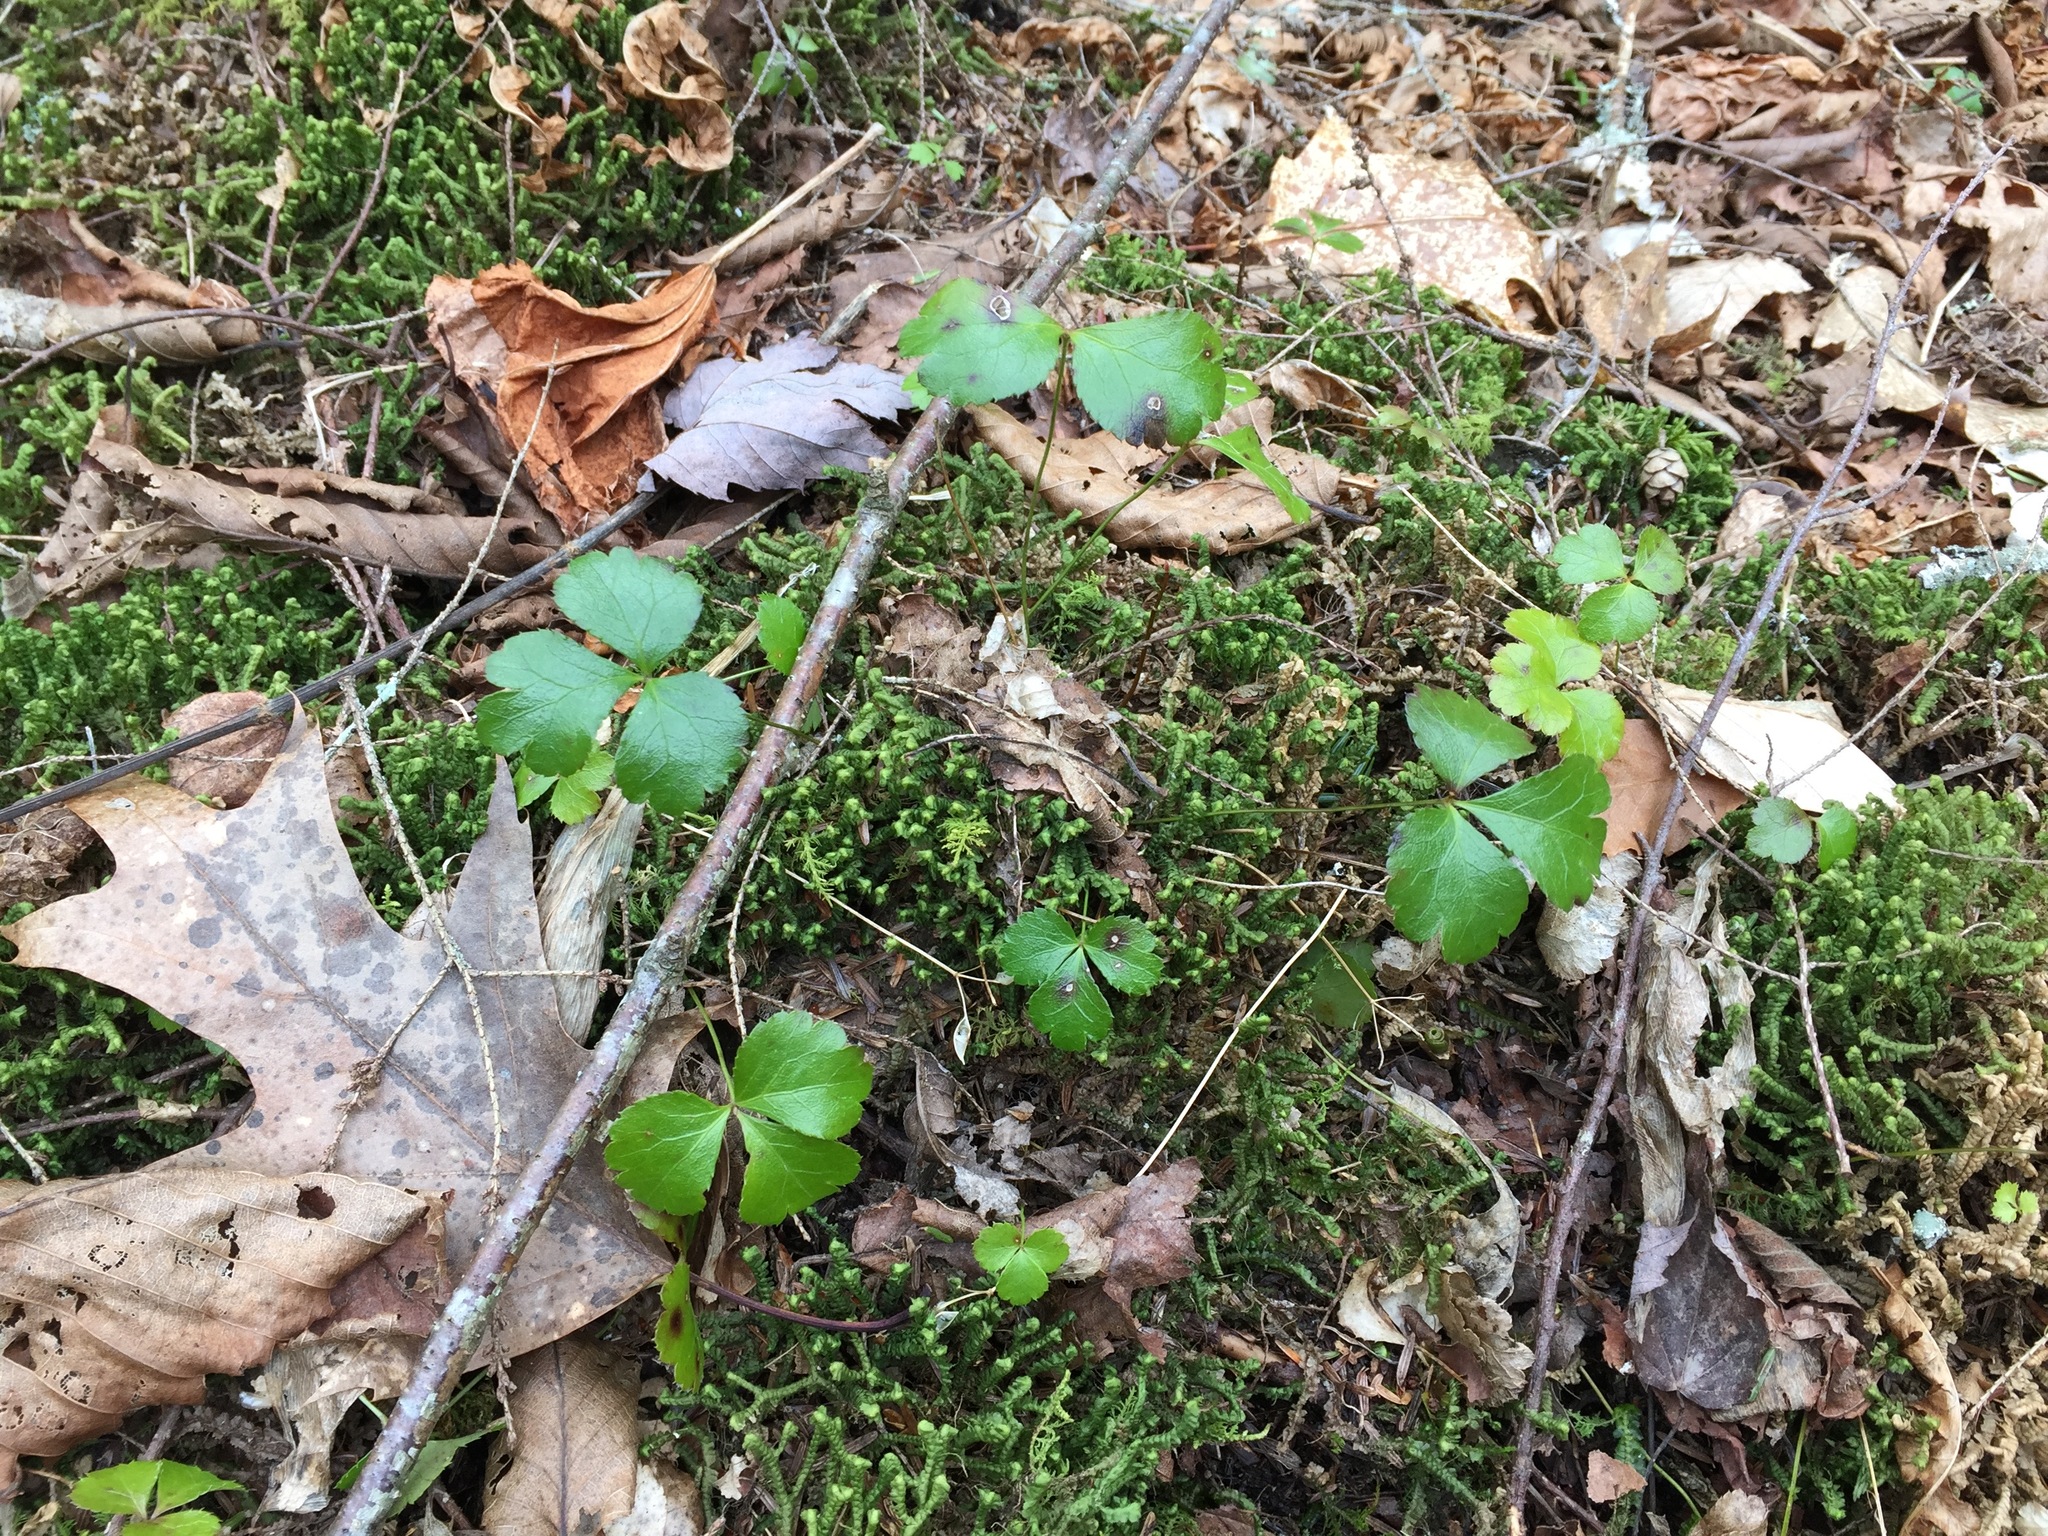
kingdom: Plantae
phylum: Tracheophyta
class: Magnoliopsida
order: Ranunculales
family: Ranunculaceae
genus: Coptis
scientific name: Coptis trifolia
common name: Canker-root
